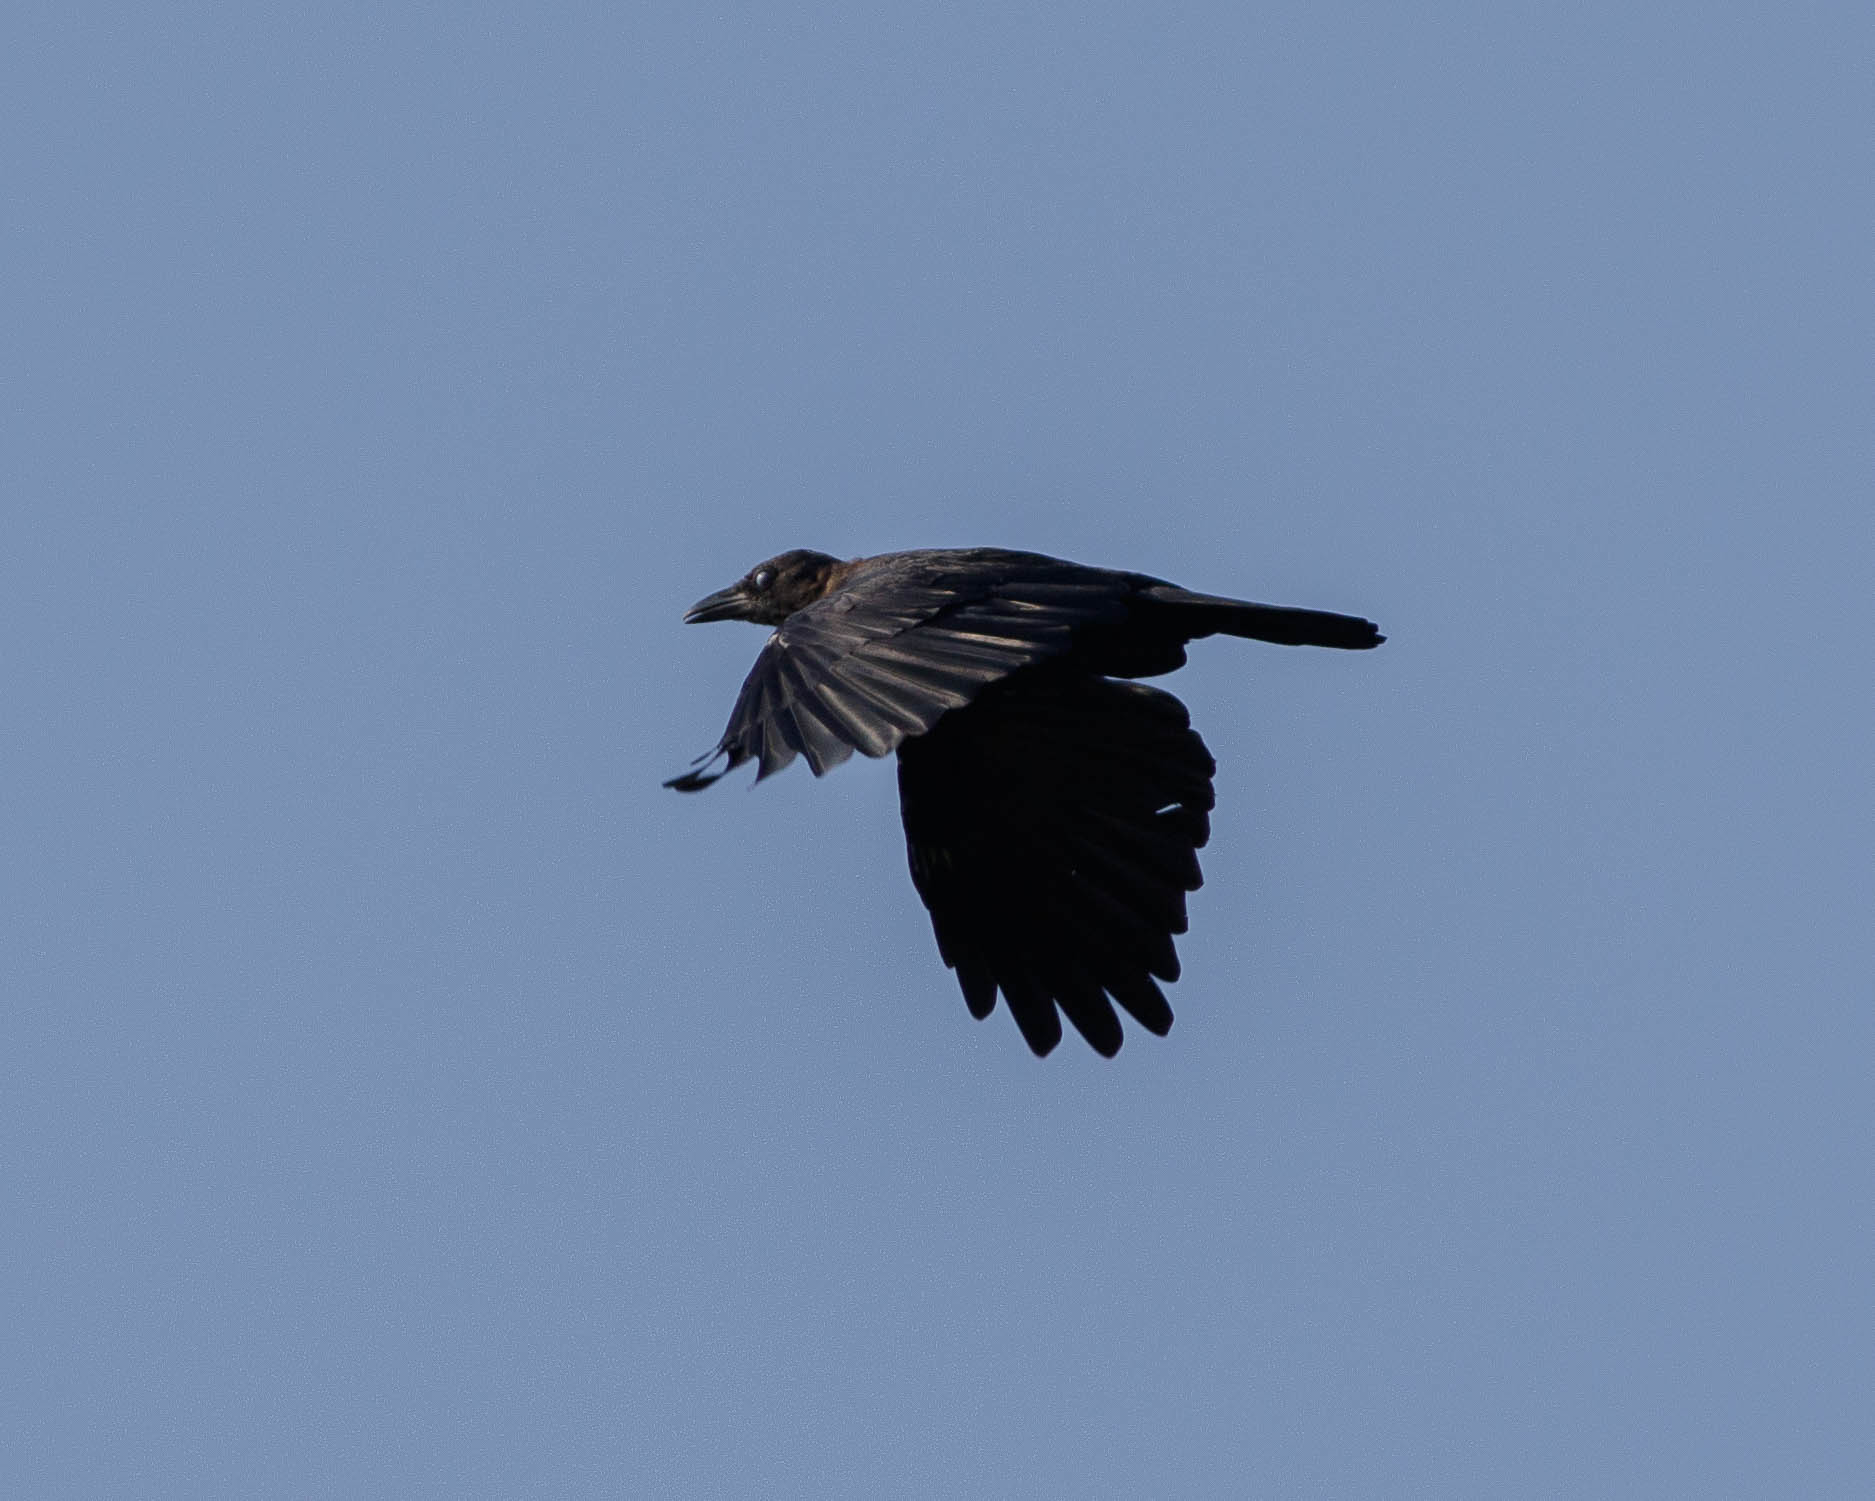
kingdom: Animalia
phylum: Chordata
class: Aves
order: Passeriformes
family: Corvidae
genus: Corvus
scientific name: Corvus ossifragus
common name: Fish crow
